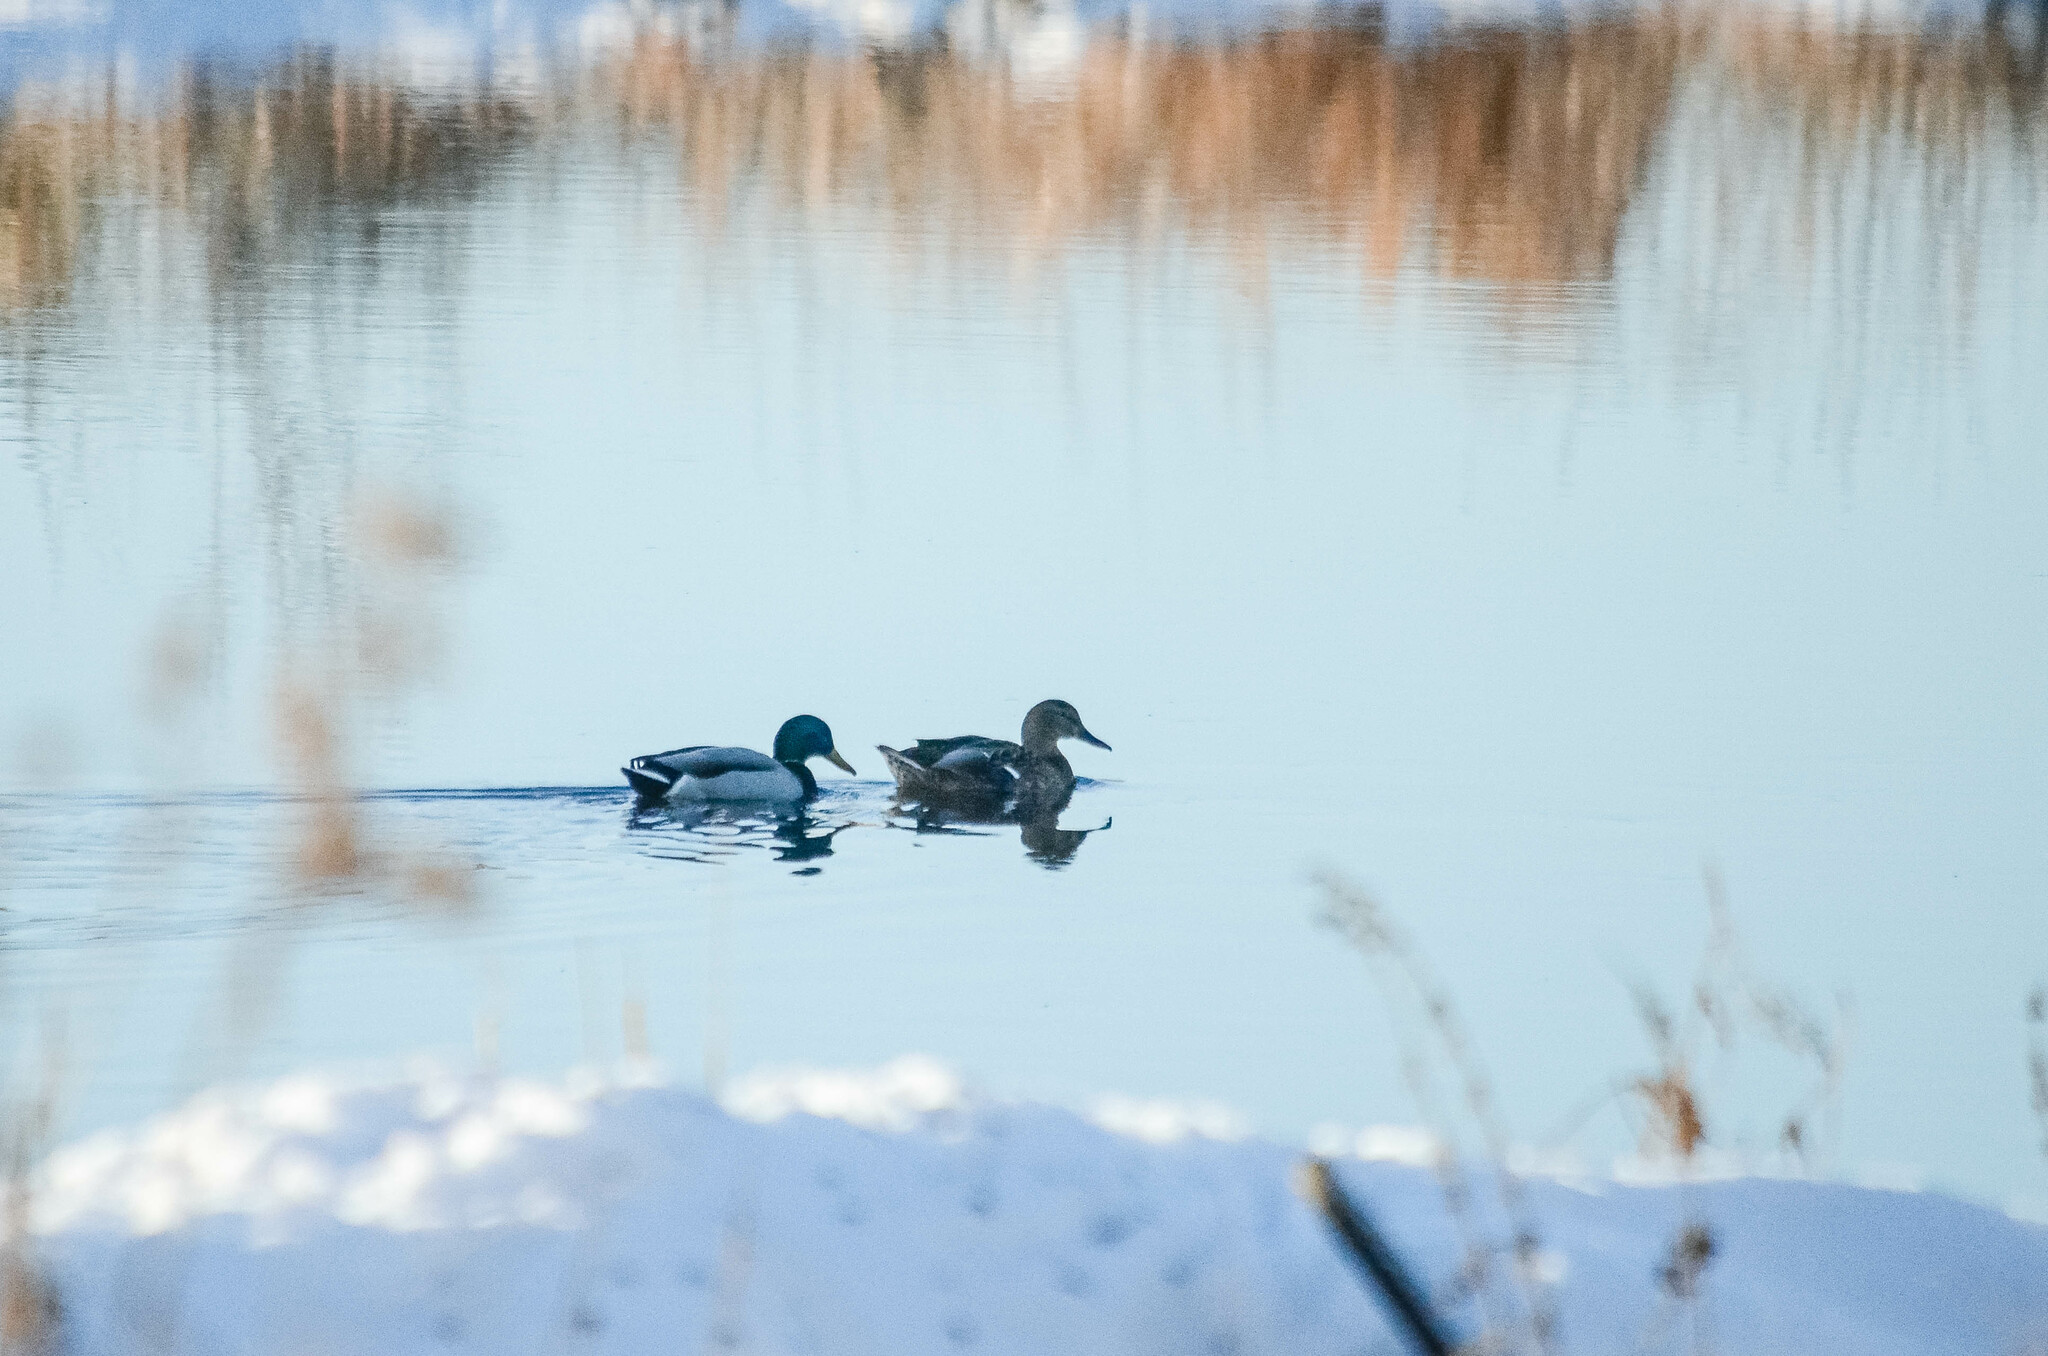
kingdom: Animalia
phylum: Chordata
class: Aves
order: Anseriformes
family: Anatidae
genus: Anas
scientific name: Anas platyrhynchos
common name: Mallard
